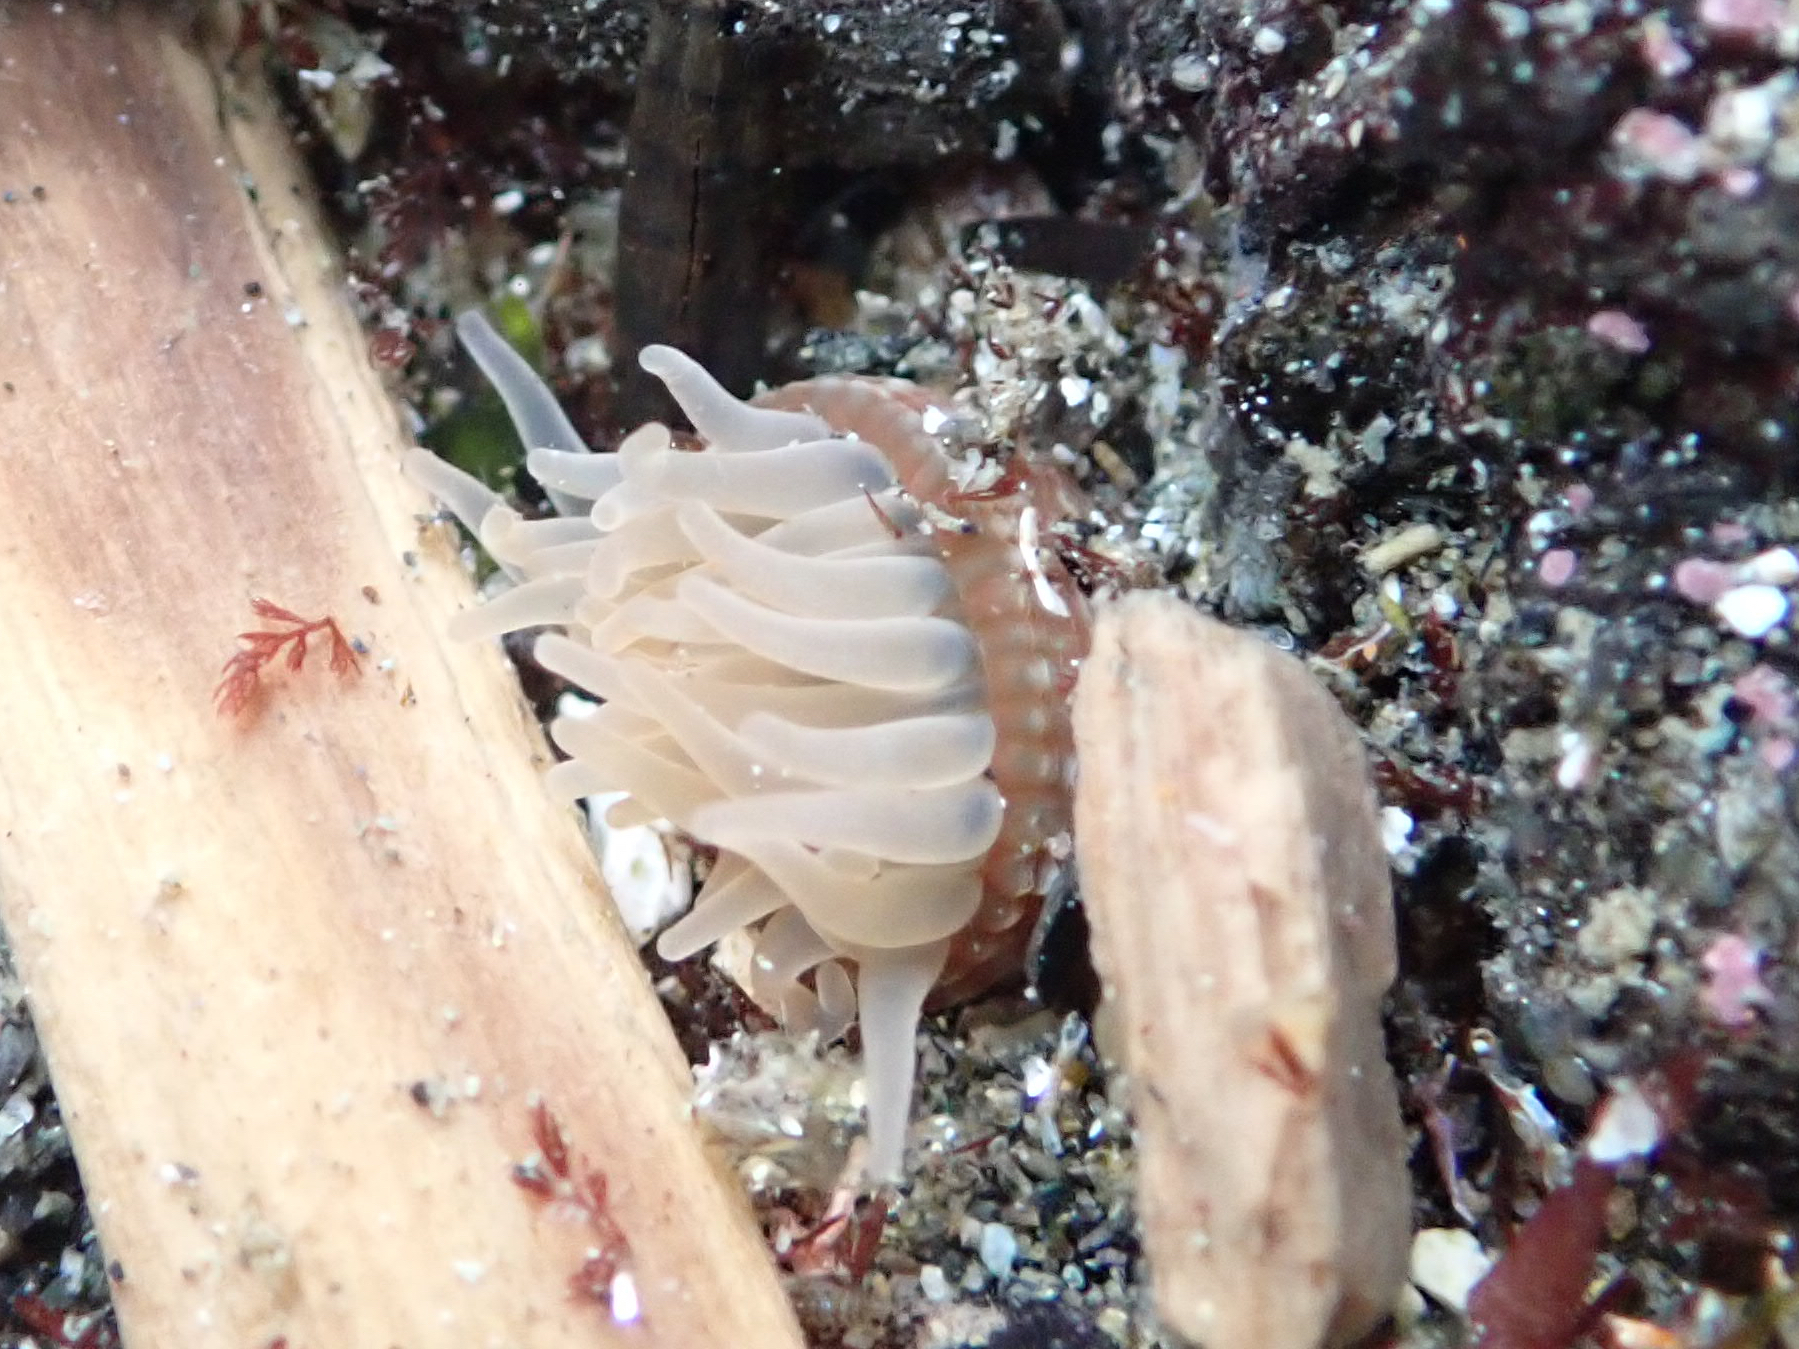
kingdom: Animalia
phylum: Cnidaria
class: Anthozoa
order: Actiniaria
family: Actiniidae
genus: Aulactinia
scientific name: Aulactinia incubans
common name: Incubating anemone
